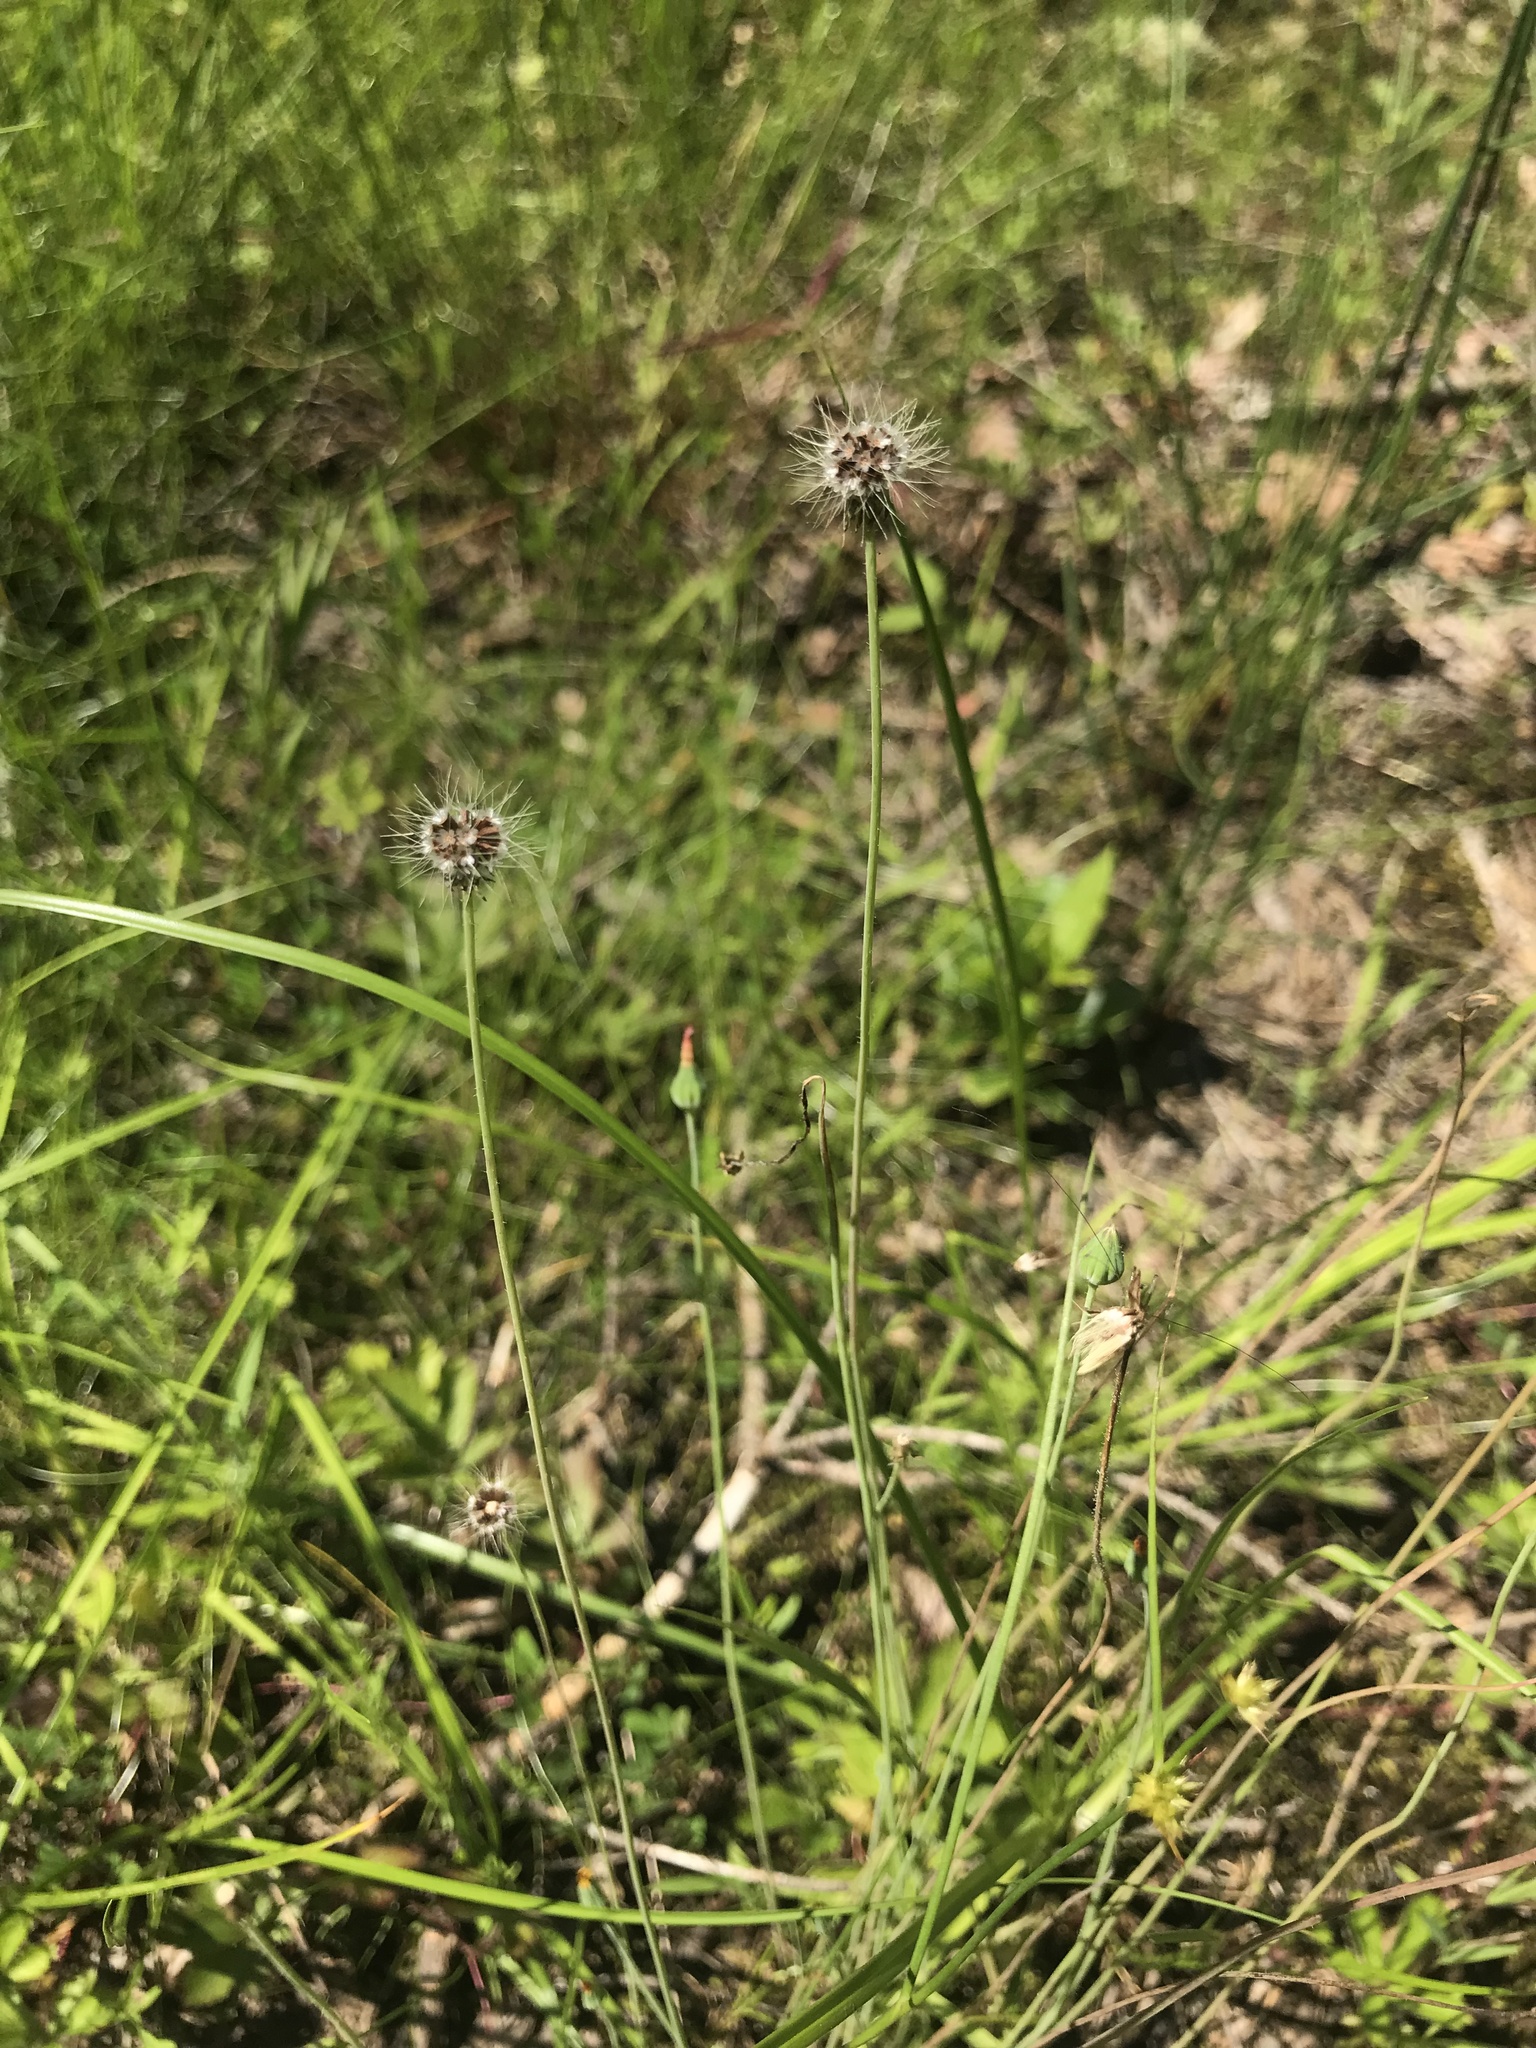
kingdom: Plantae
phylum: Tracheophyta
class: Magnoliopsida
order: Asterales
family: Asteraceae
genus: Krigia
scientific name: Krigia virginica
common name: Virginia dwarf-dandelion
